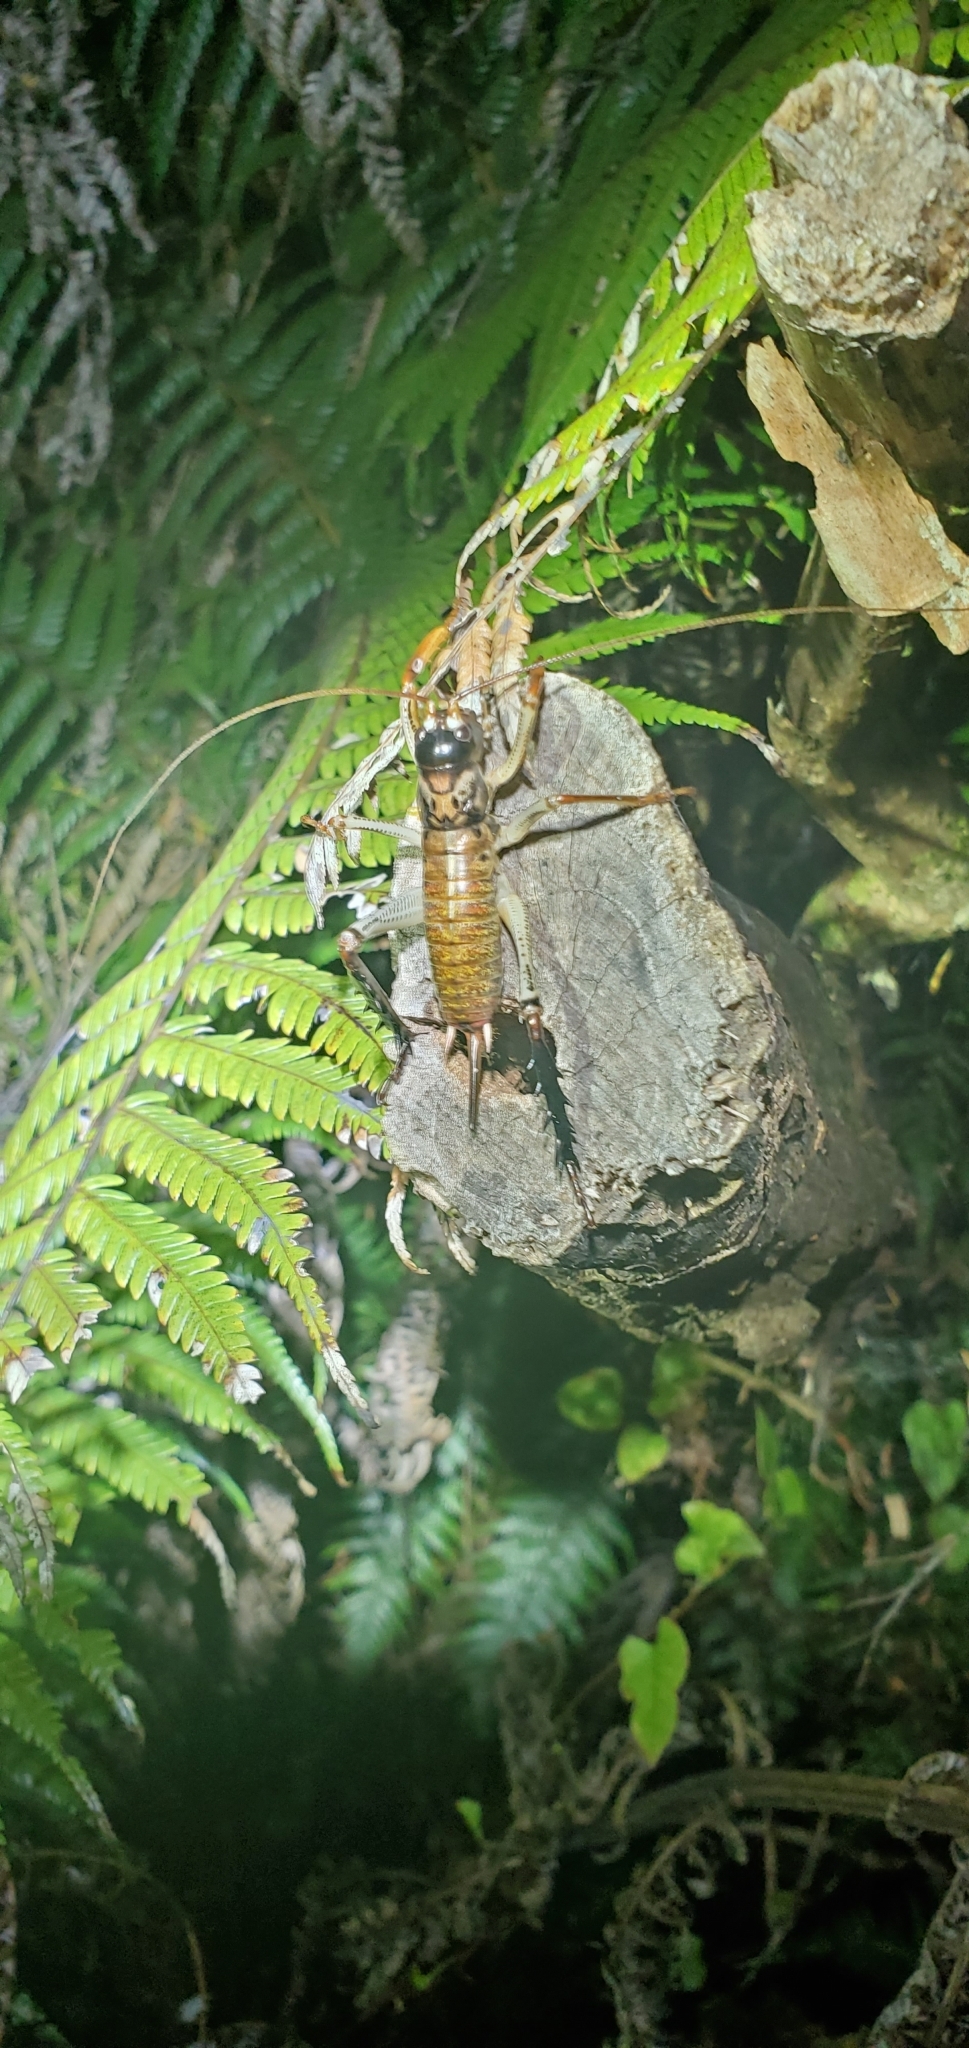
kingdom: Animalia
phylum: Arthropoda
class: Insecta
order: Orthoptera
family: Anostostomatidae
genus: Hemideina
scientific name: Hemideina thoracica
